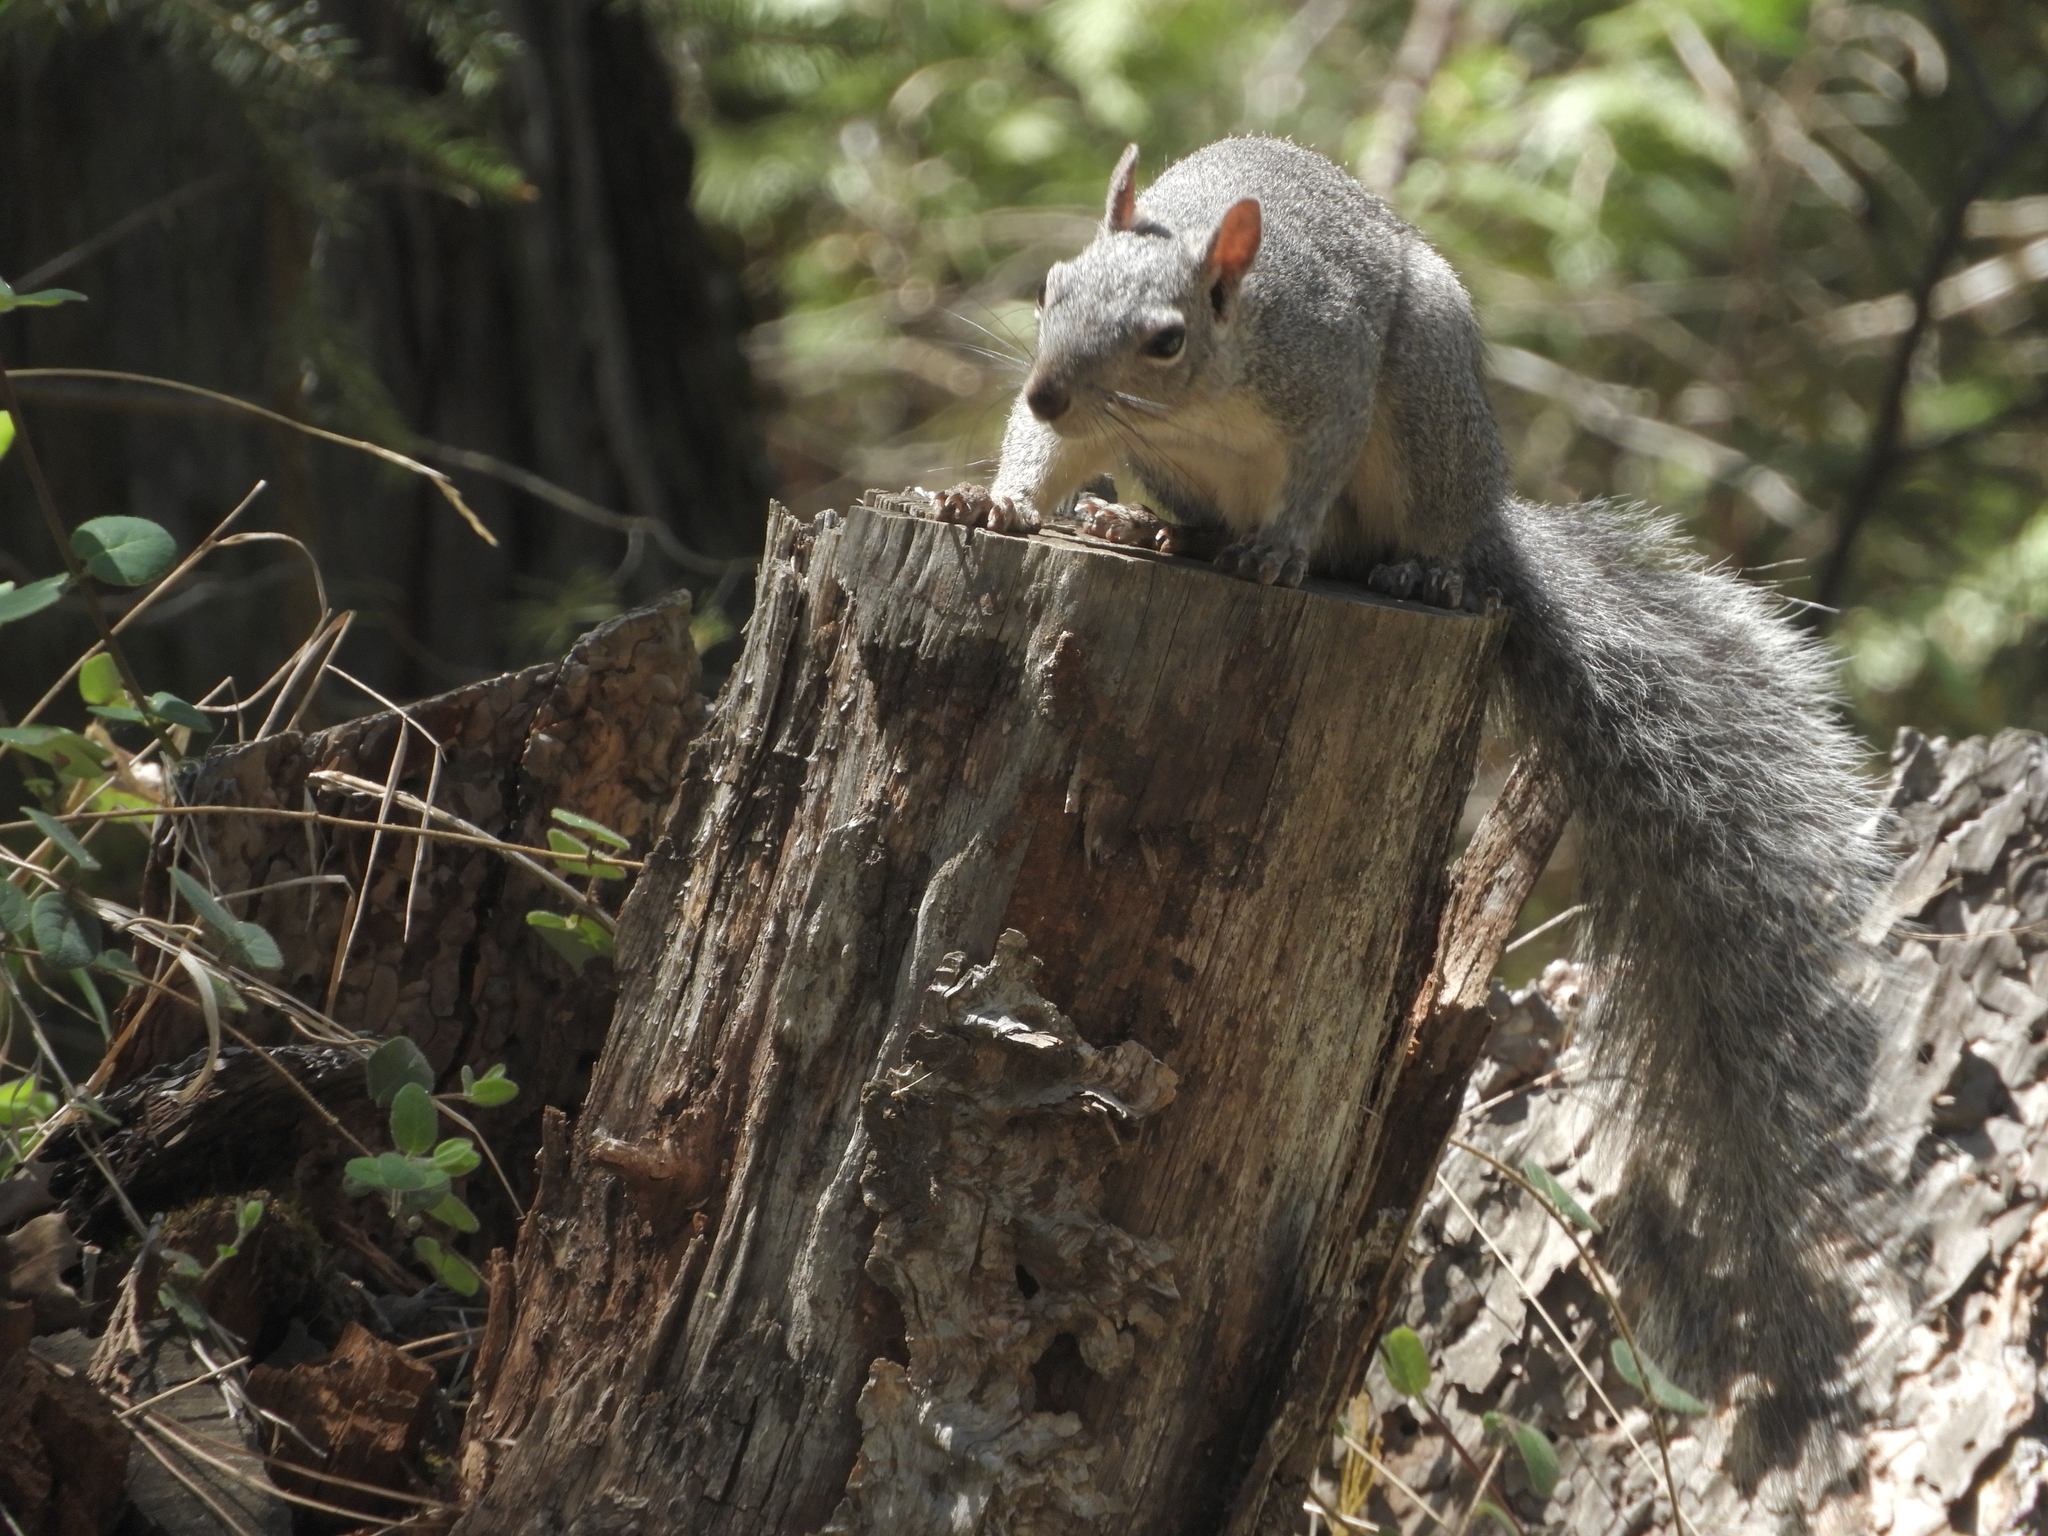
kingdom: Animalia
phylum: Chordata
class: Mammalia
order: Rodentia
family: Sciuridae
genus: Sciurus
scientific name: Sciurus griseus
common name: Western gray squirrel
